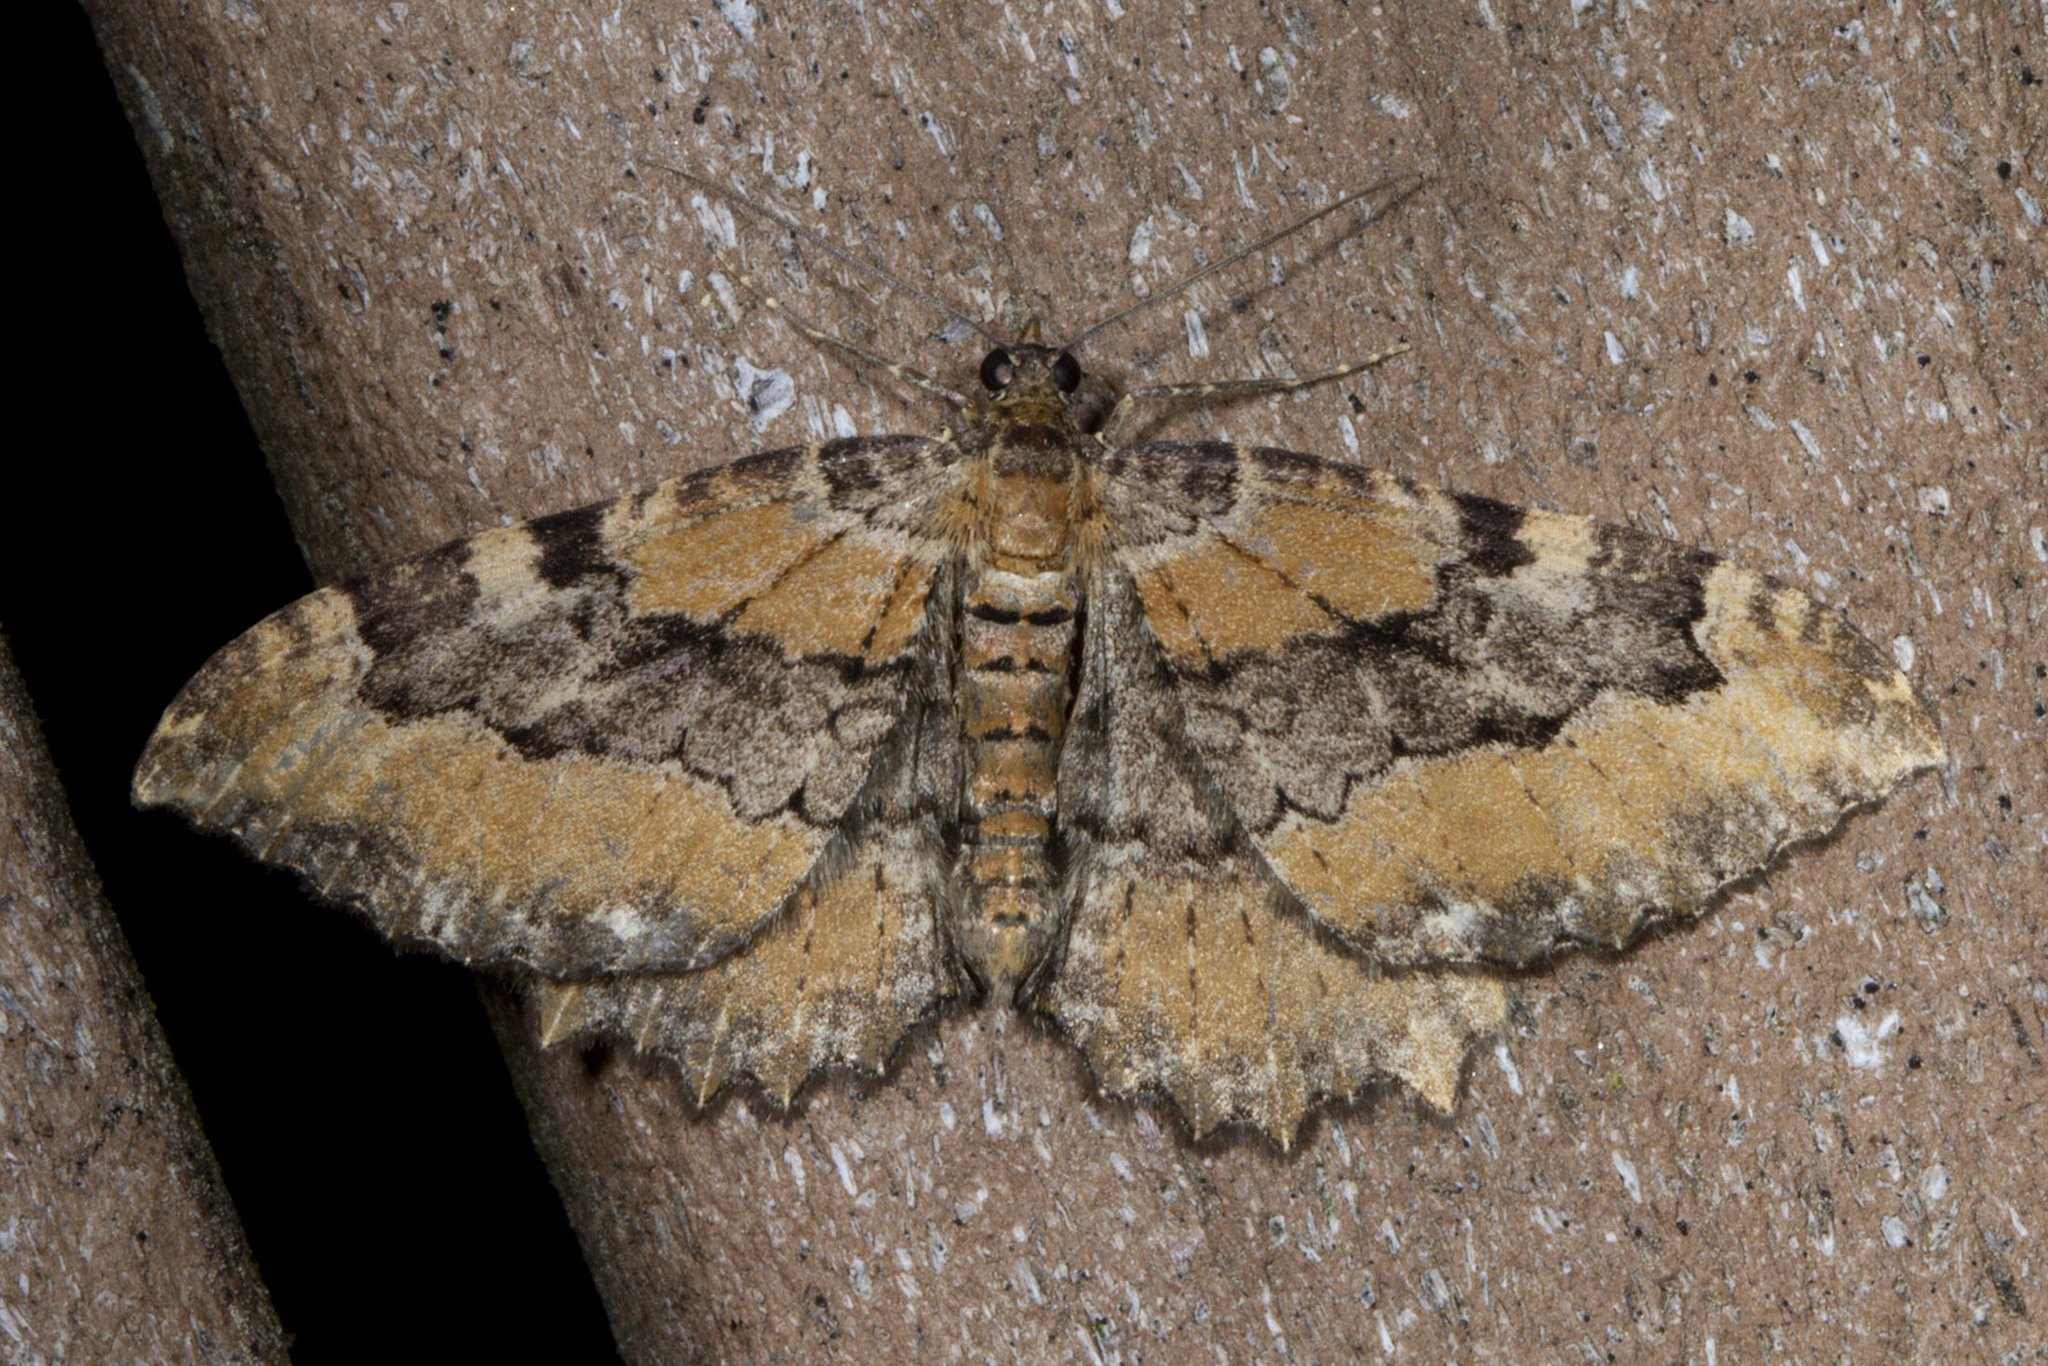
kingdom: Animalia
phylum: Arthropoda
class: Insecta
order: Lepidoptera
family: Geometridae
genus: Rheumaptera
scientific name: Rheumaptera
